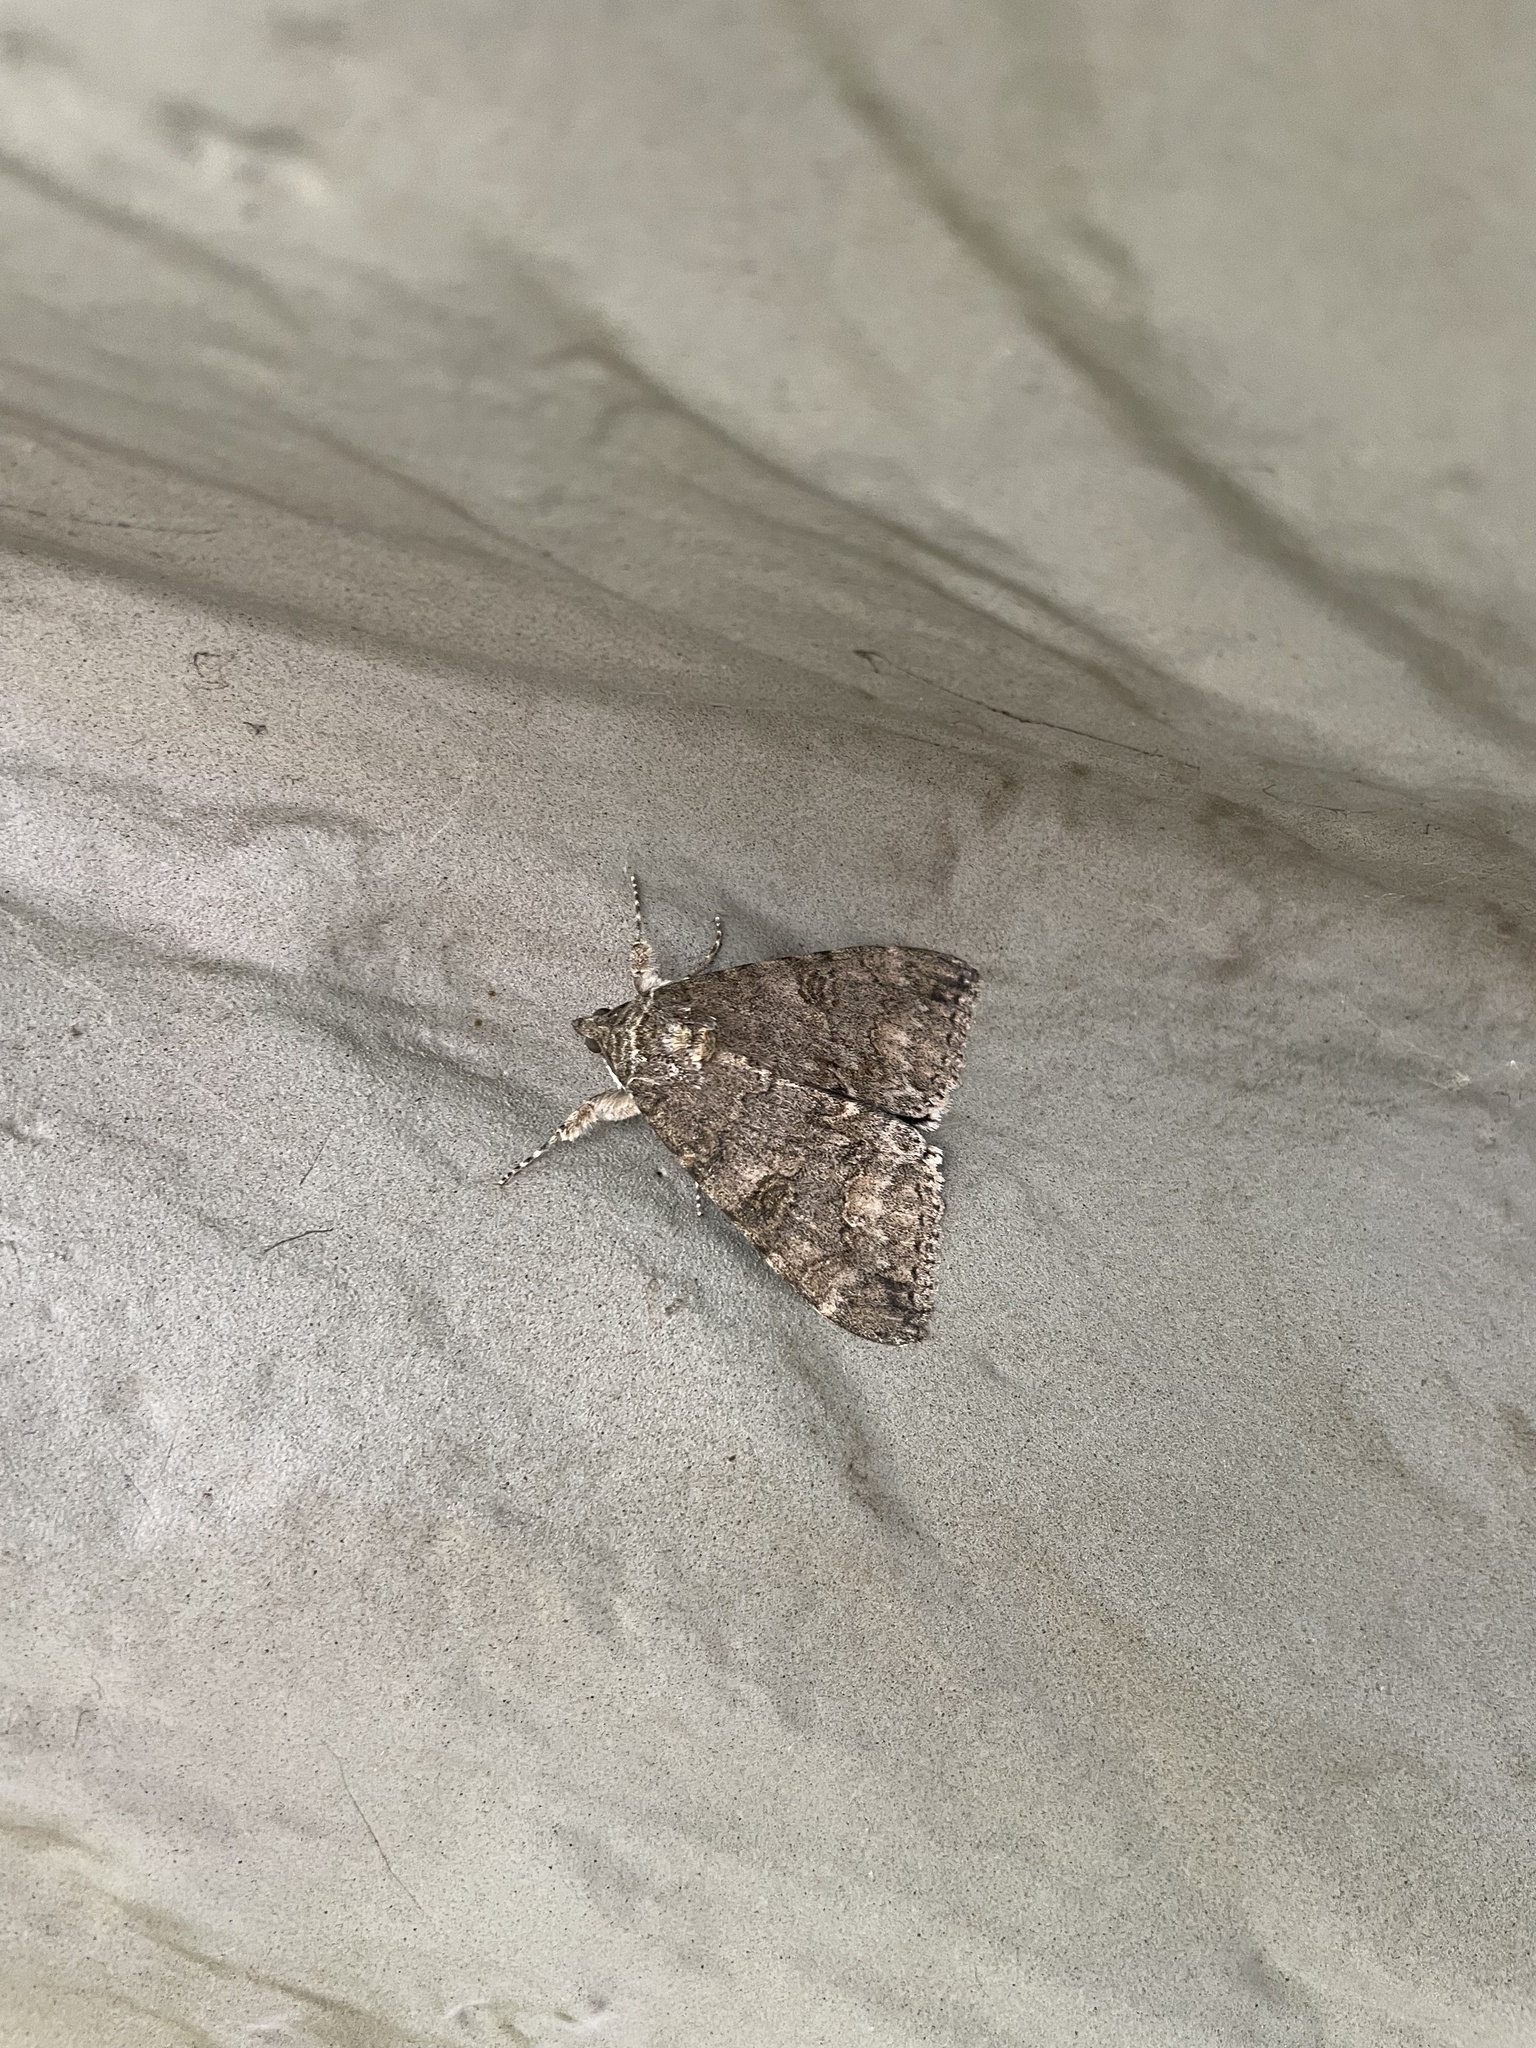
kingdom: Animalia
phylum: Arthropoda
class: Insecta
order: Lepidoptera
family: Erebidae
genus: Catocala
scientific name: Catocala nupta
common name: Red underwing
